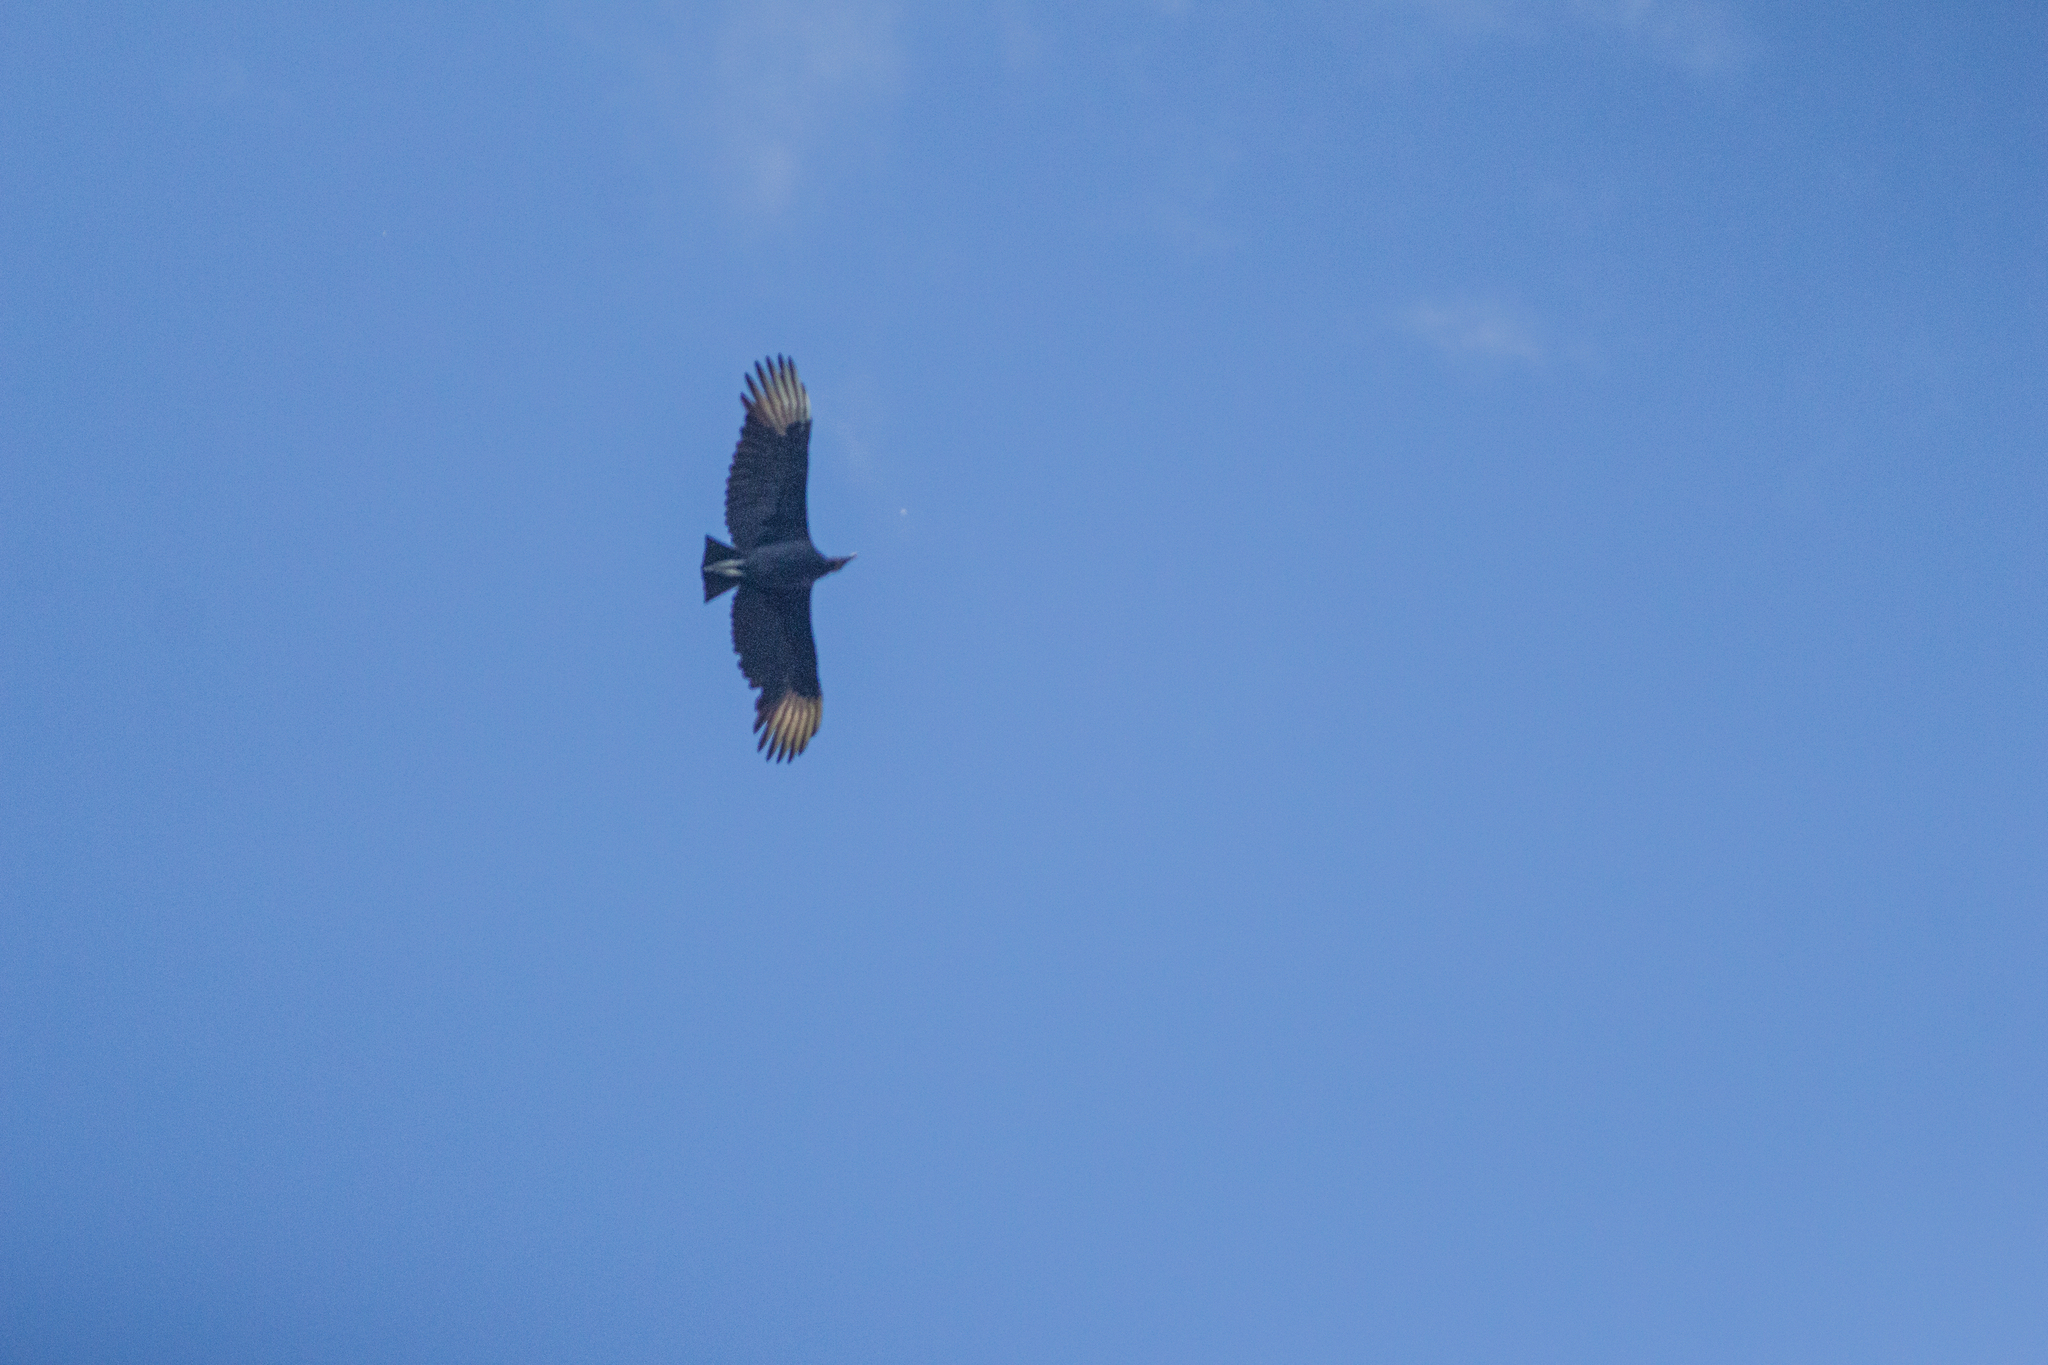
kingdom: Animalia
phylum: Chordata
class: Aves
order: Accipitriformes
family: Cathartidae
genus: Coragyps
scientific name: Coragyps atratus
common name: Black vulture
